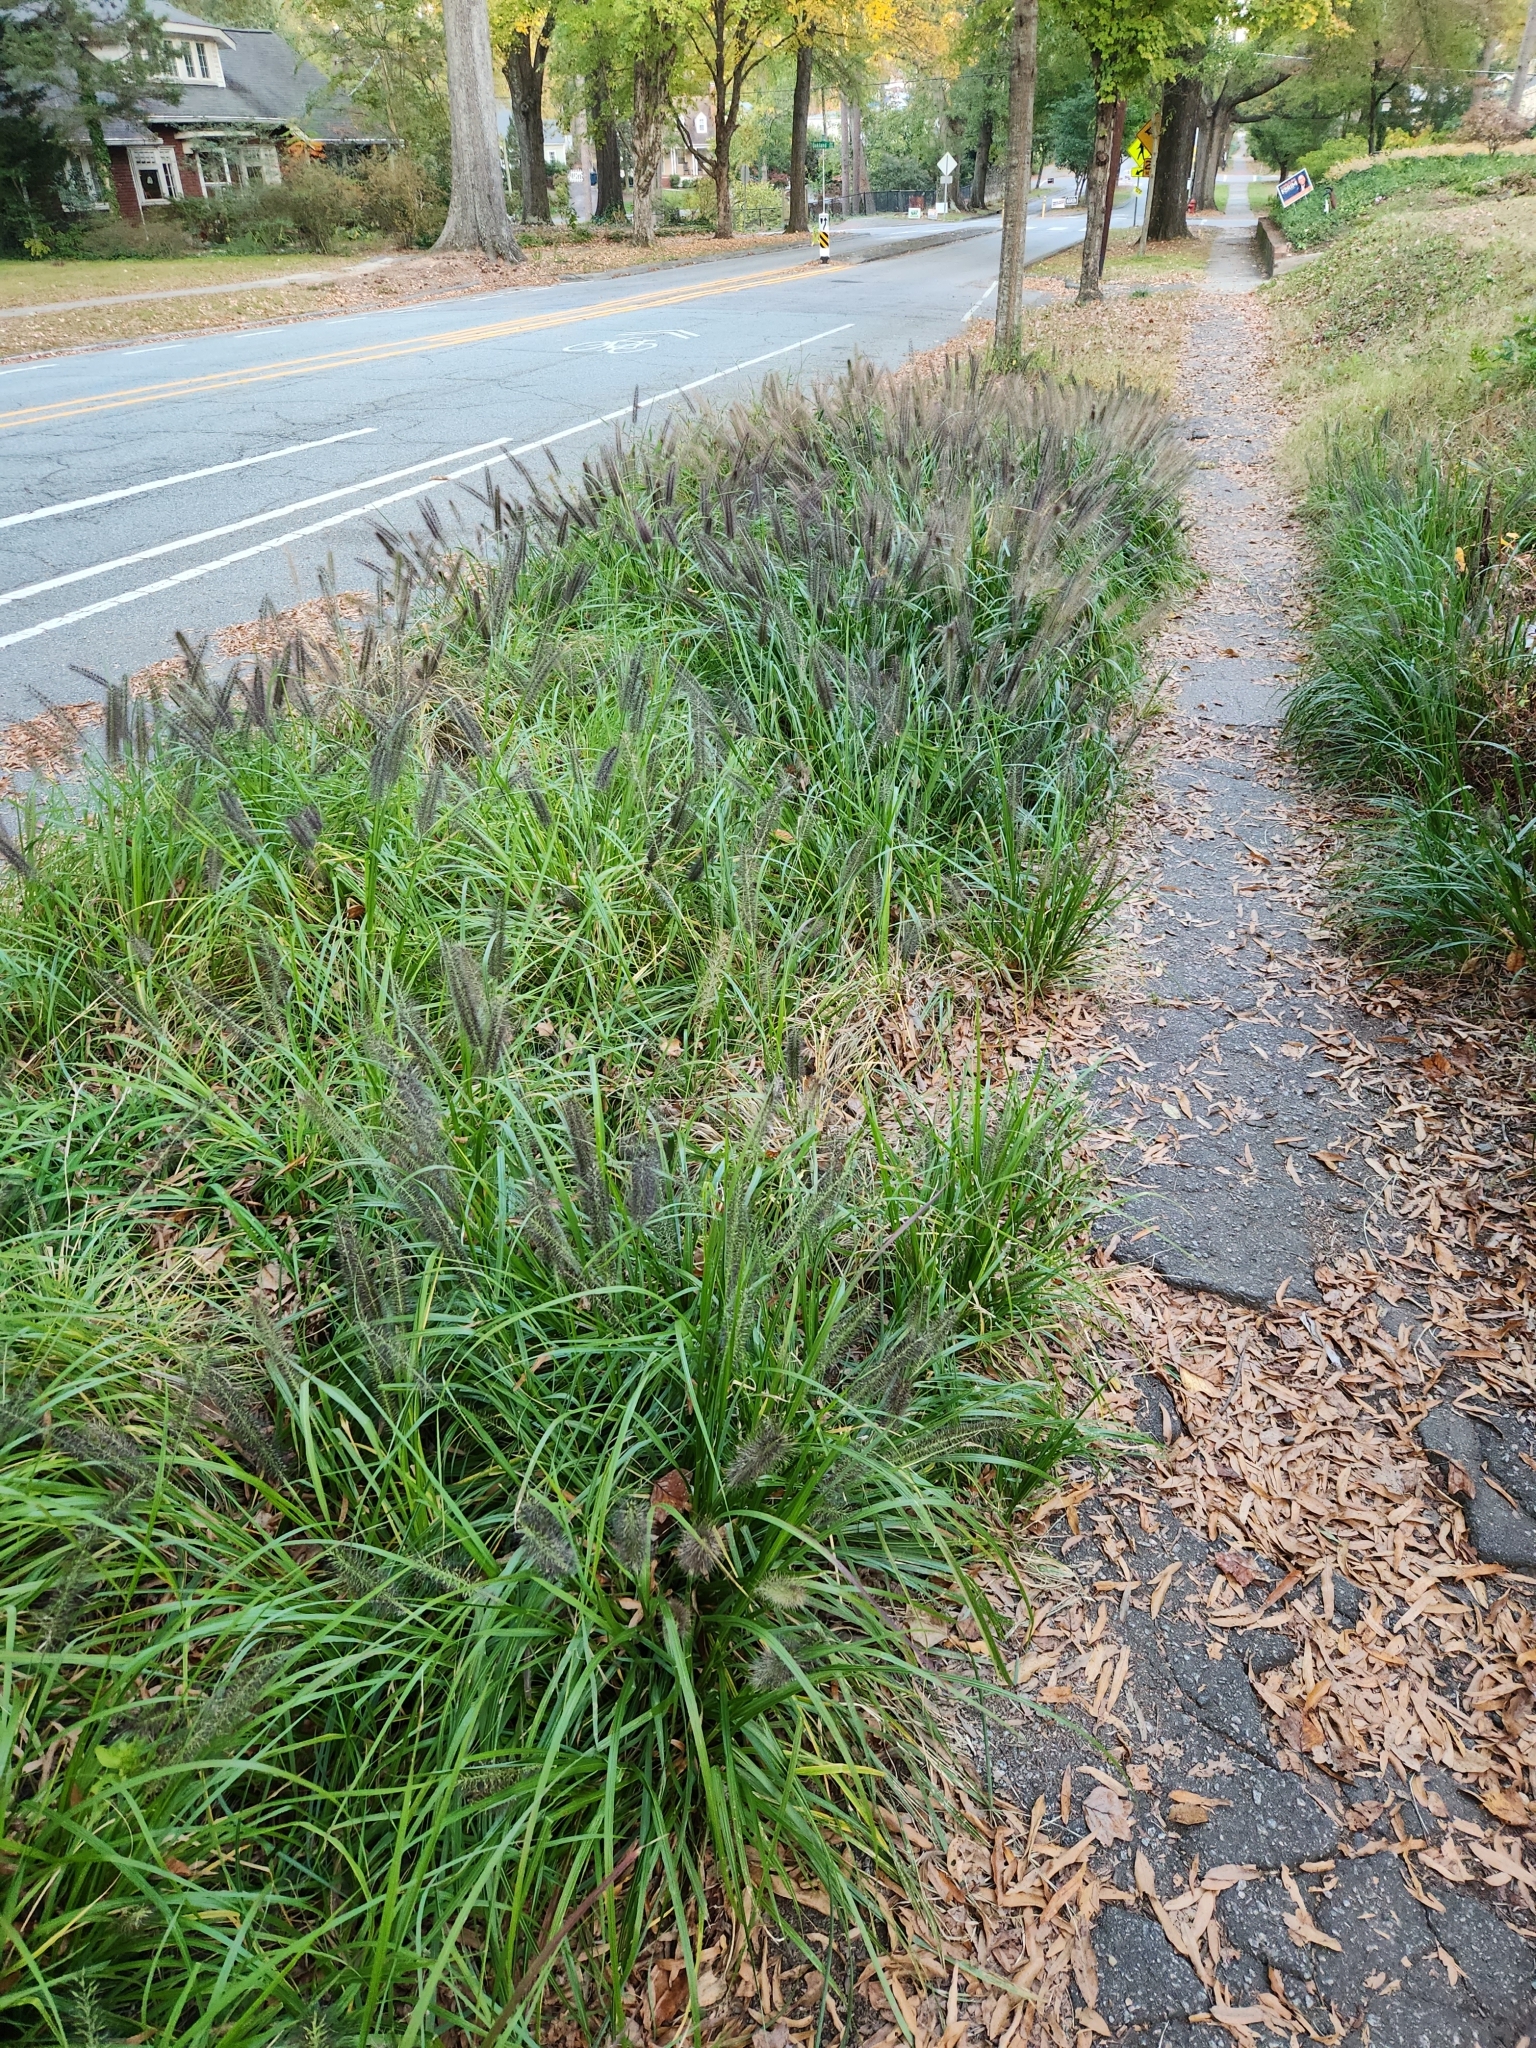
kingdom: Plantae
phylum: Tracheophyta
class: Liliopsida
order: Poales
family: Poaceae
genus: Cenchrus
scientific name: Cenchrus alopecuroides
